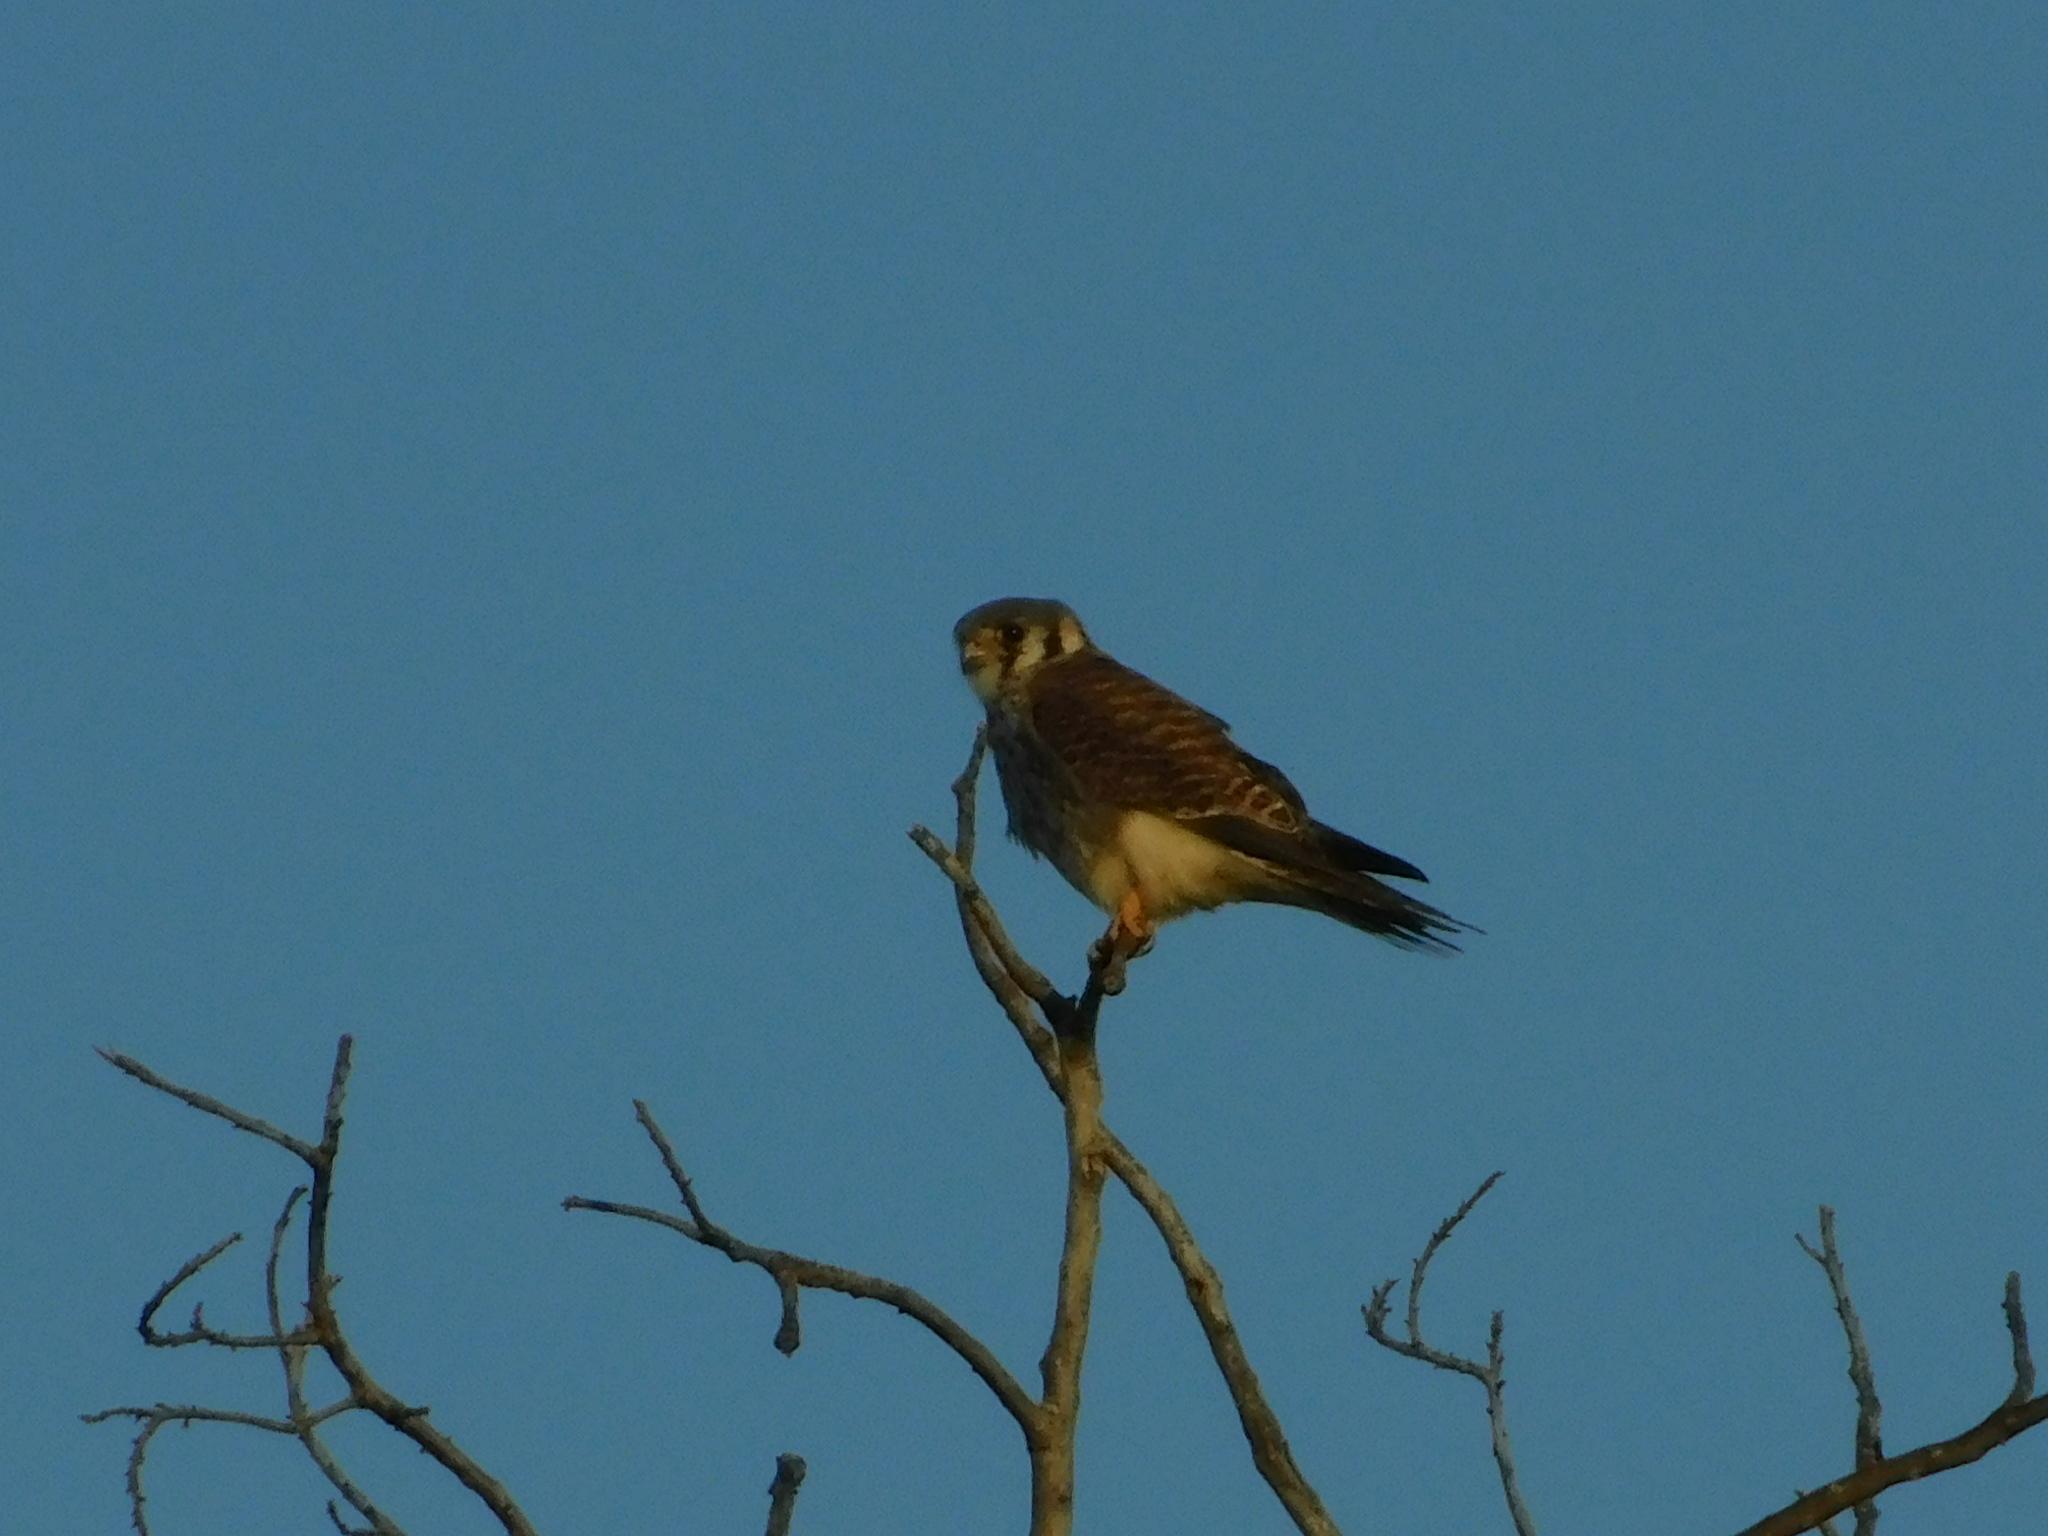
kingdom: Animalia
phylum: Chordata
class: Aves
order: Falconiformes
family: Falconidae
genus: Falco
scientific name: Falco sparverius
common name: American kestrel
